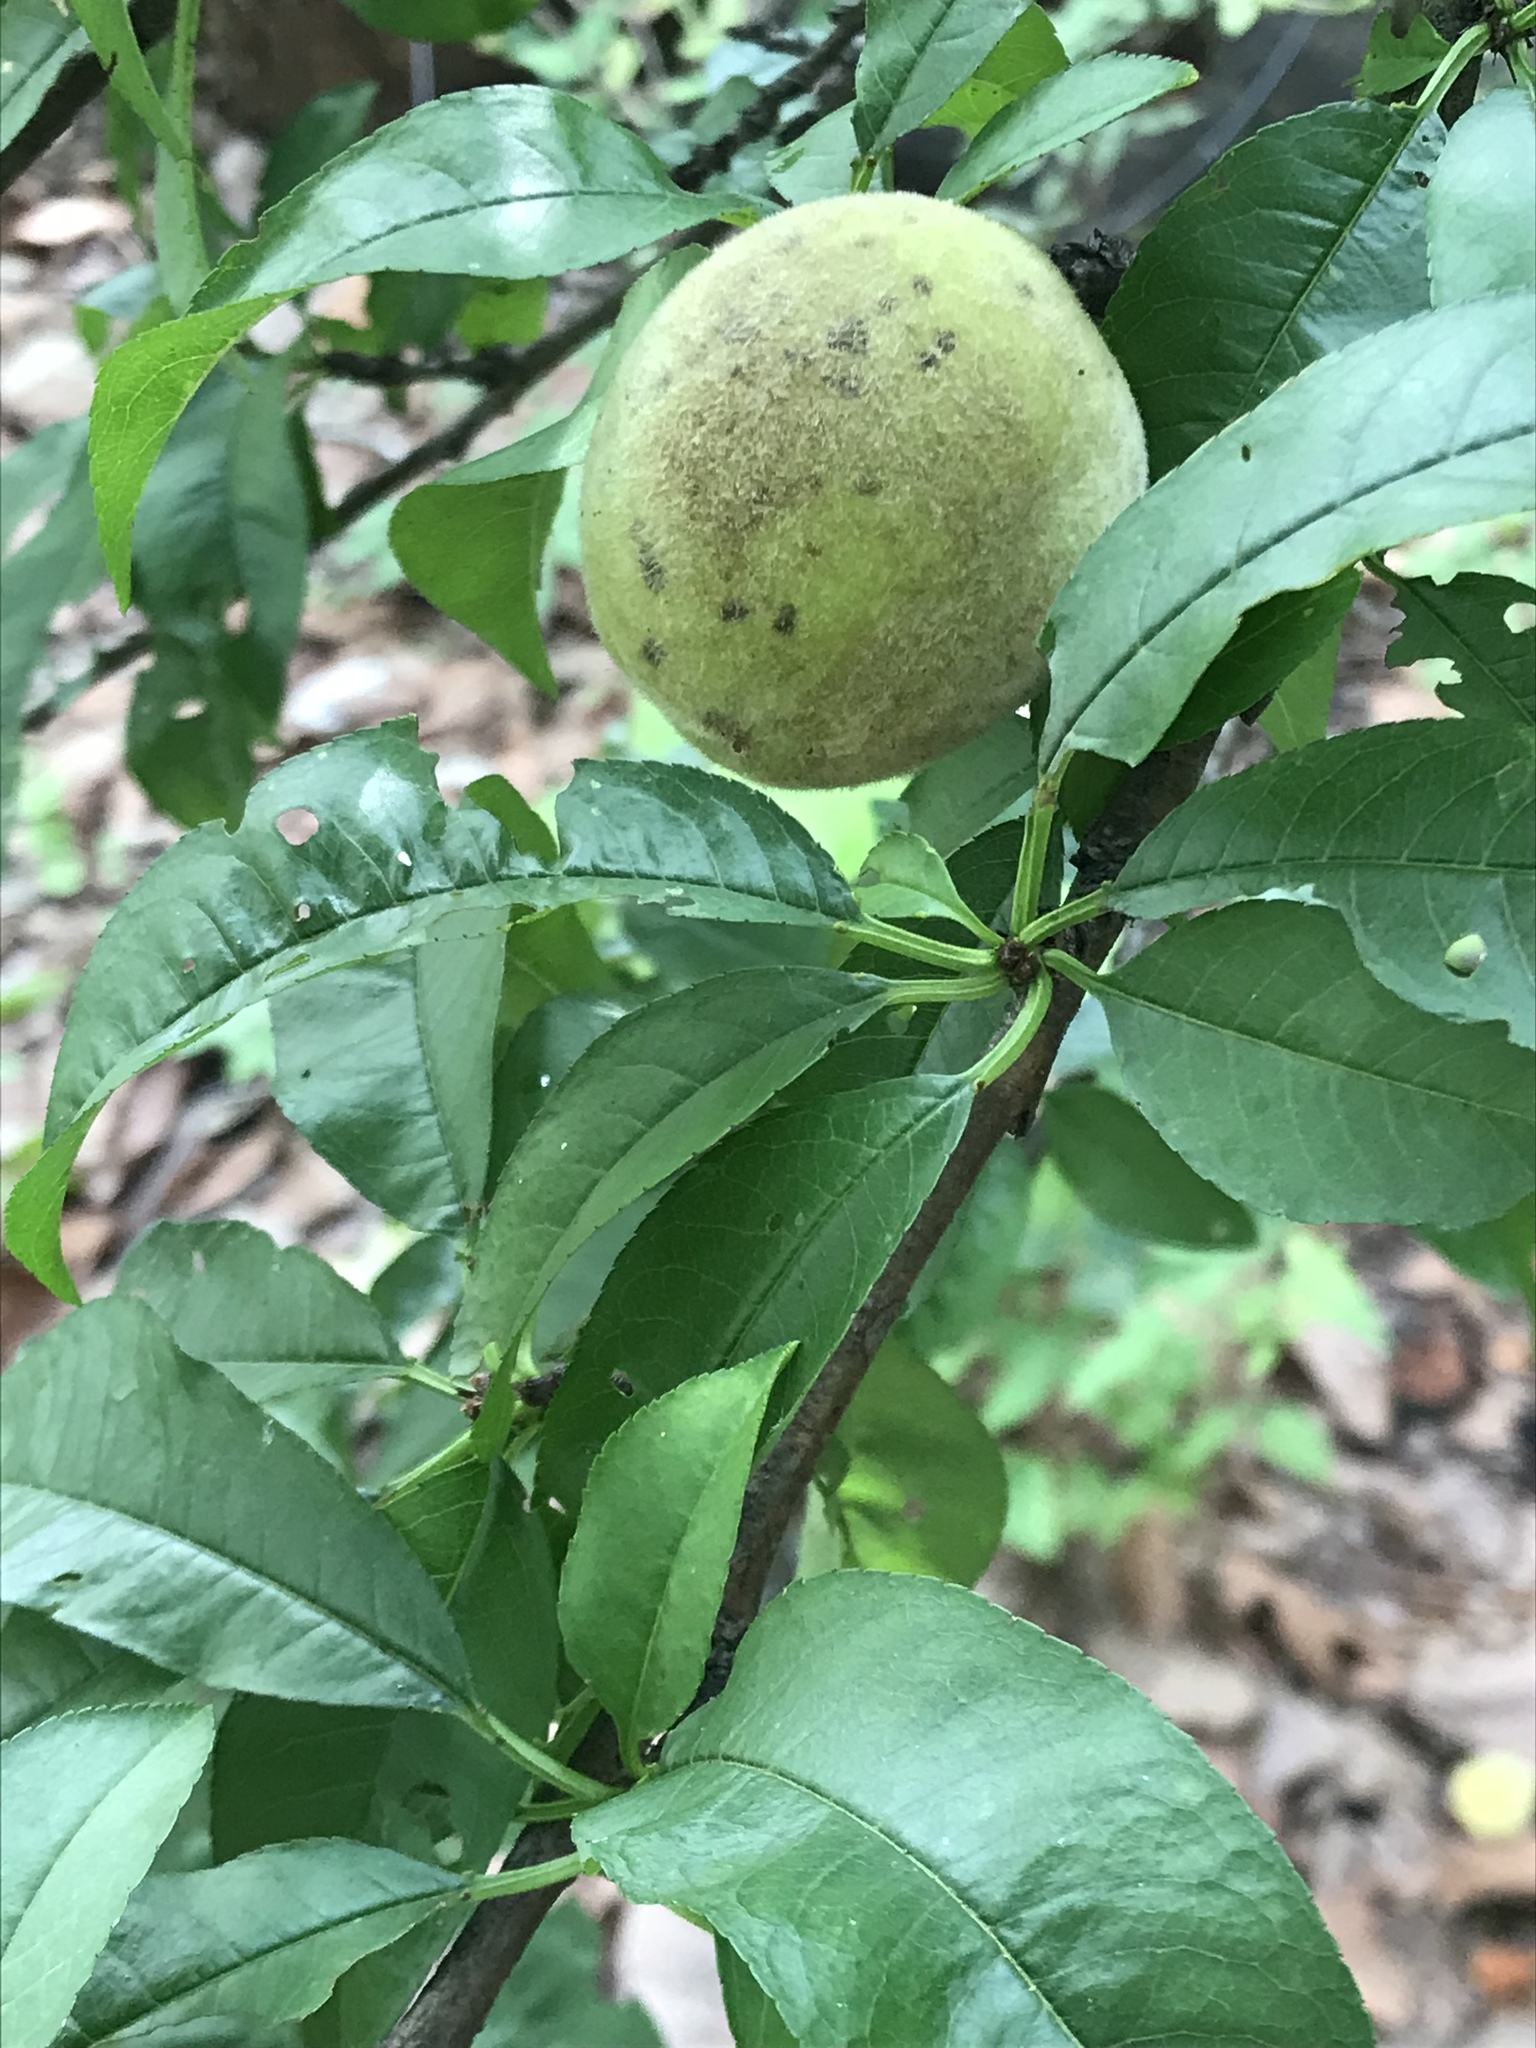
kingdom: Plantae
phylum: Tracheophyta
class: Magnoliopsida
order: Rosales
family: Rosaceae
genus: Prunus
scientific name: Prunus persica
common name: Peach
